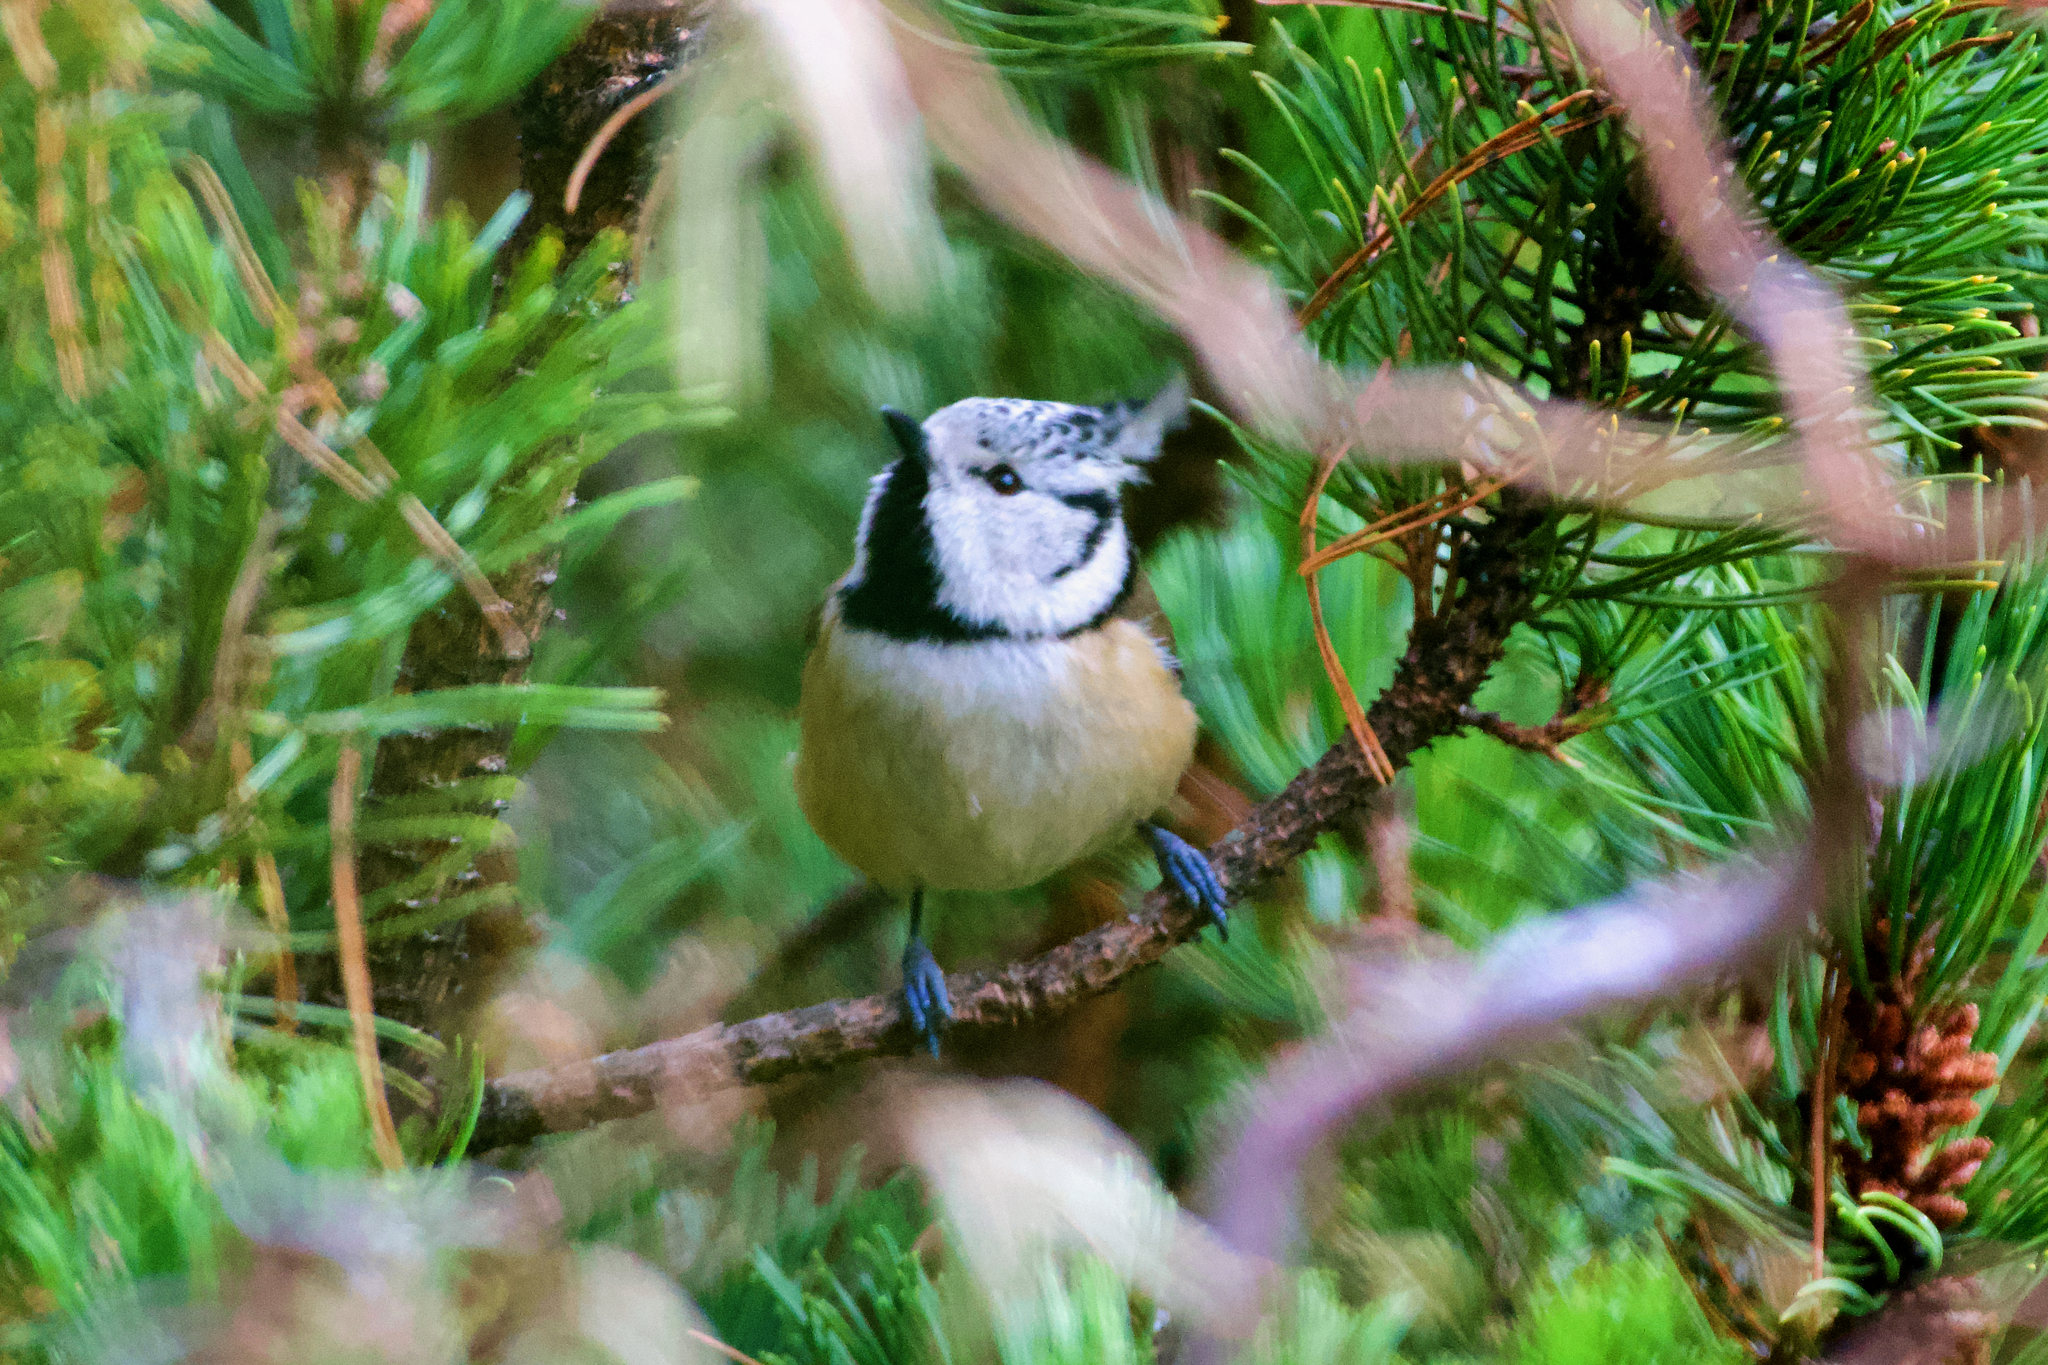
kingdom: Animalia
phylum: Chordata
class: Aves
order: Passeriformes
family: Paridae
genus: Lophophanes
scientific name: Lophophanes cristatus
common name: European crested tit
